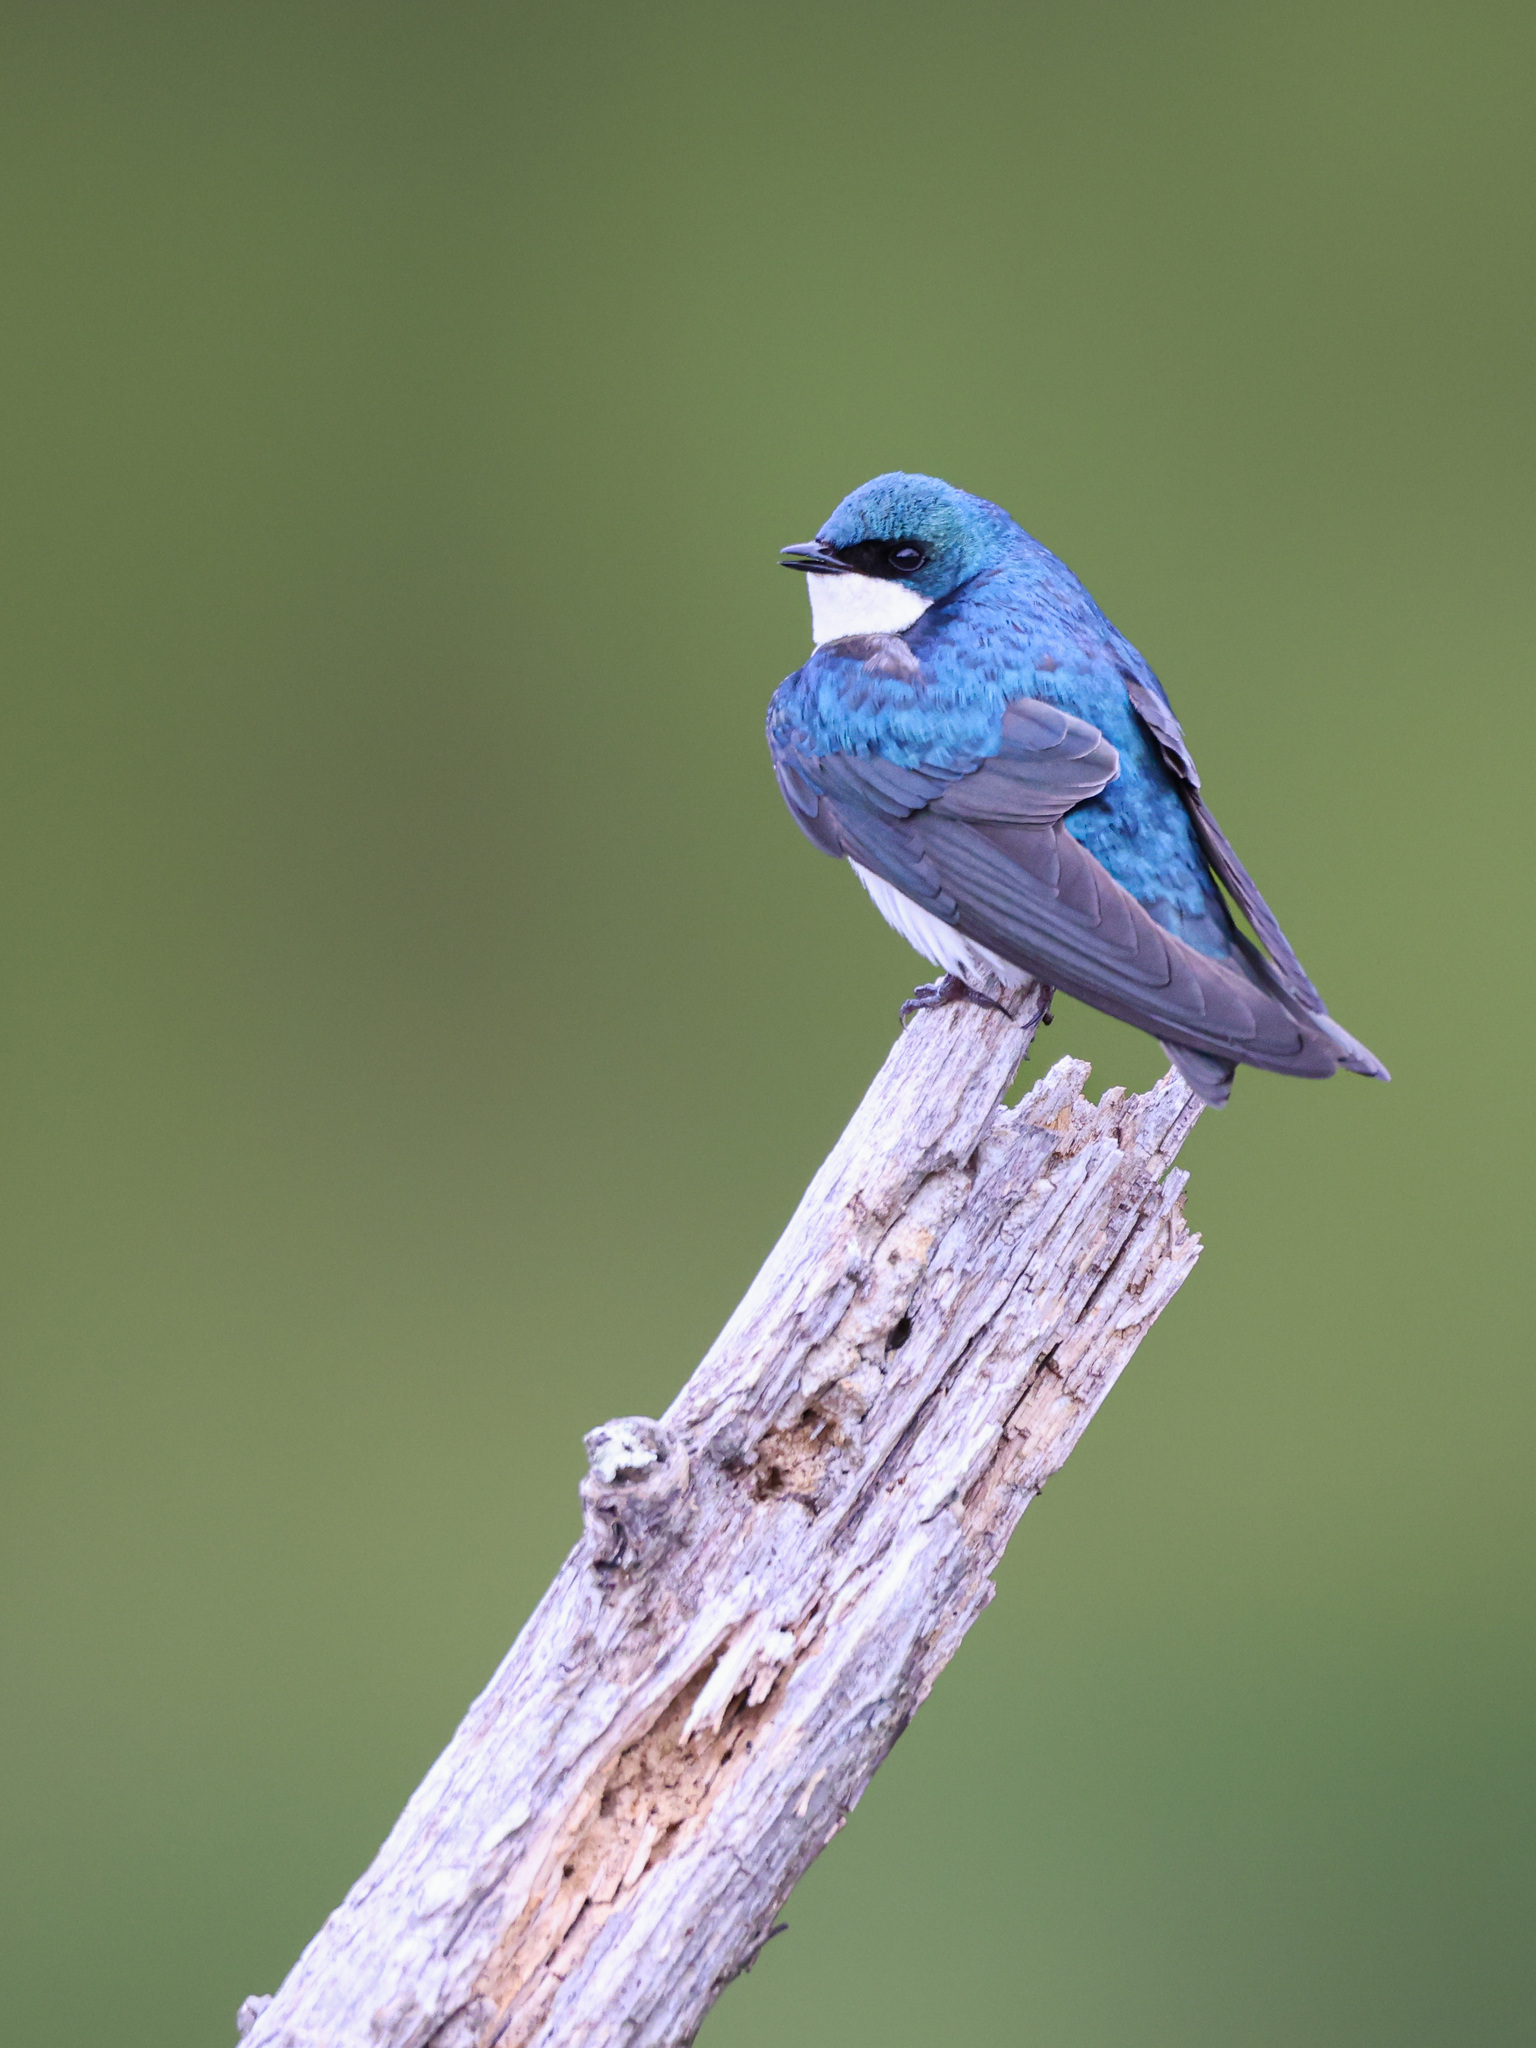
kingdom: Animalia
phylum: Chordata
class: Aves
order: Passeriformes
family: Hirundinidae
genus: Tachycineta
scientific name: Tachycineta bicolor
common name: Tree swallow
